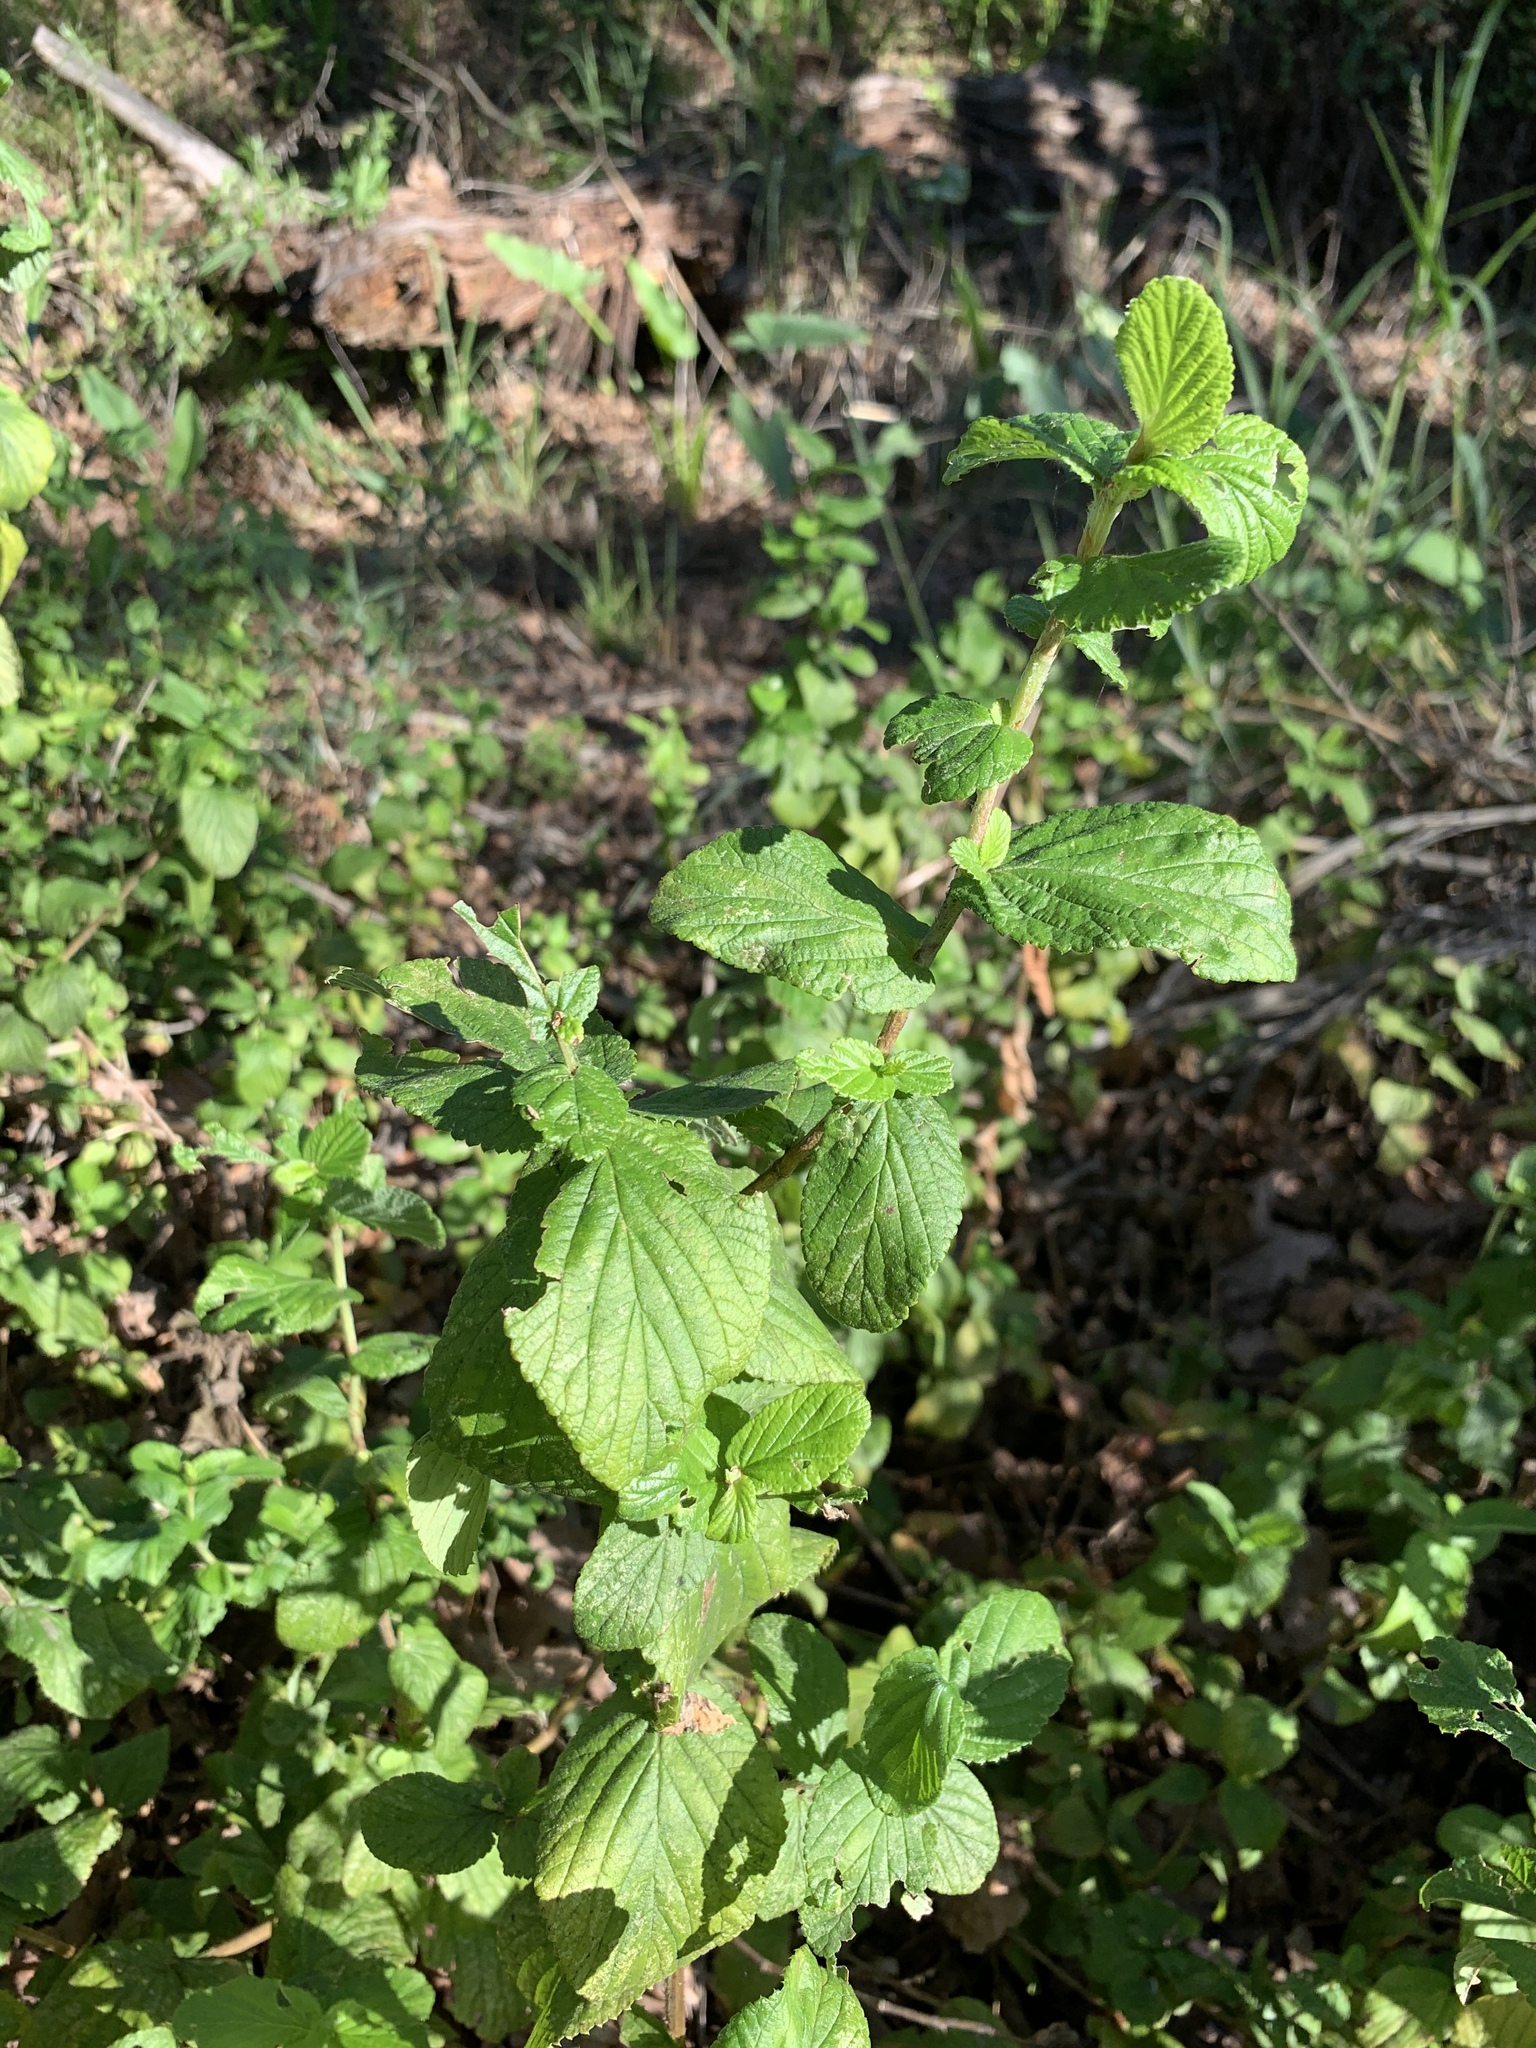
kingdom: Plantae
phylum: Tracheophyta
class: Magnoliopsida
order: Rosales
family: Rosaceae
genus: Cliffortia
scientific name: Cliffortia odorata
